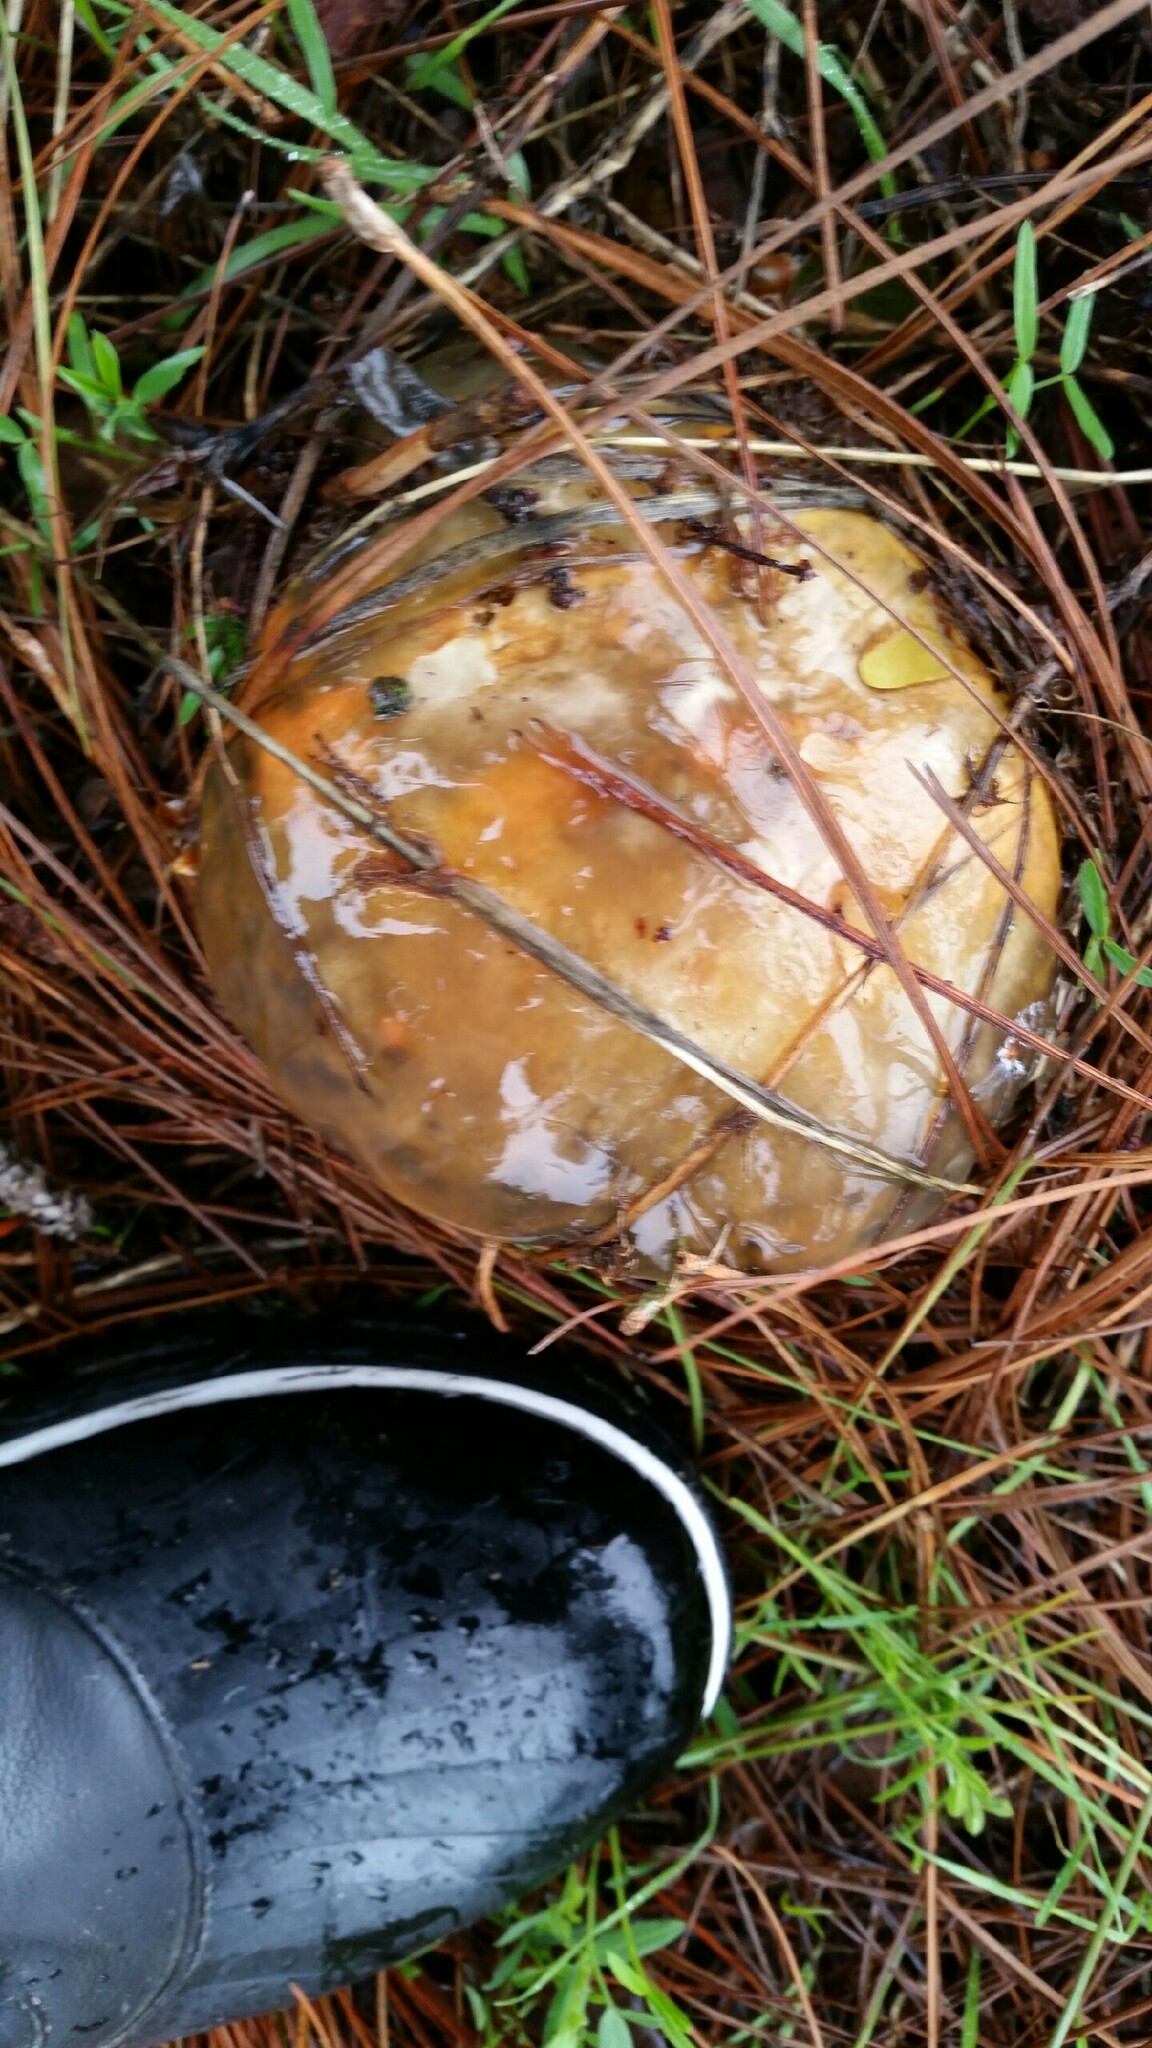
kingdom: Fungi
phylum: Basidiomycota
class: Agaricomycetes
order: Boletales
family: Suillaceae
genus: Suillus
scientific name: Suillus pungens
